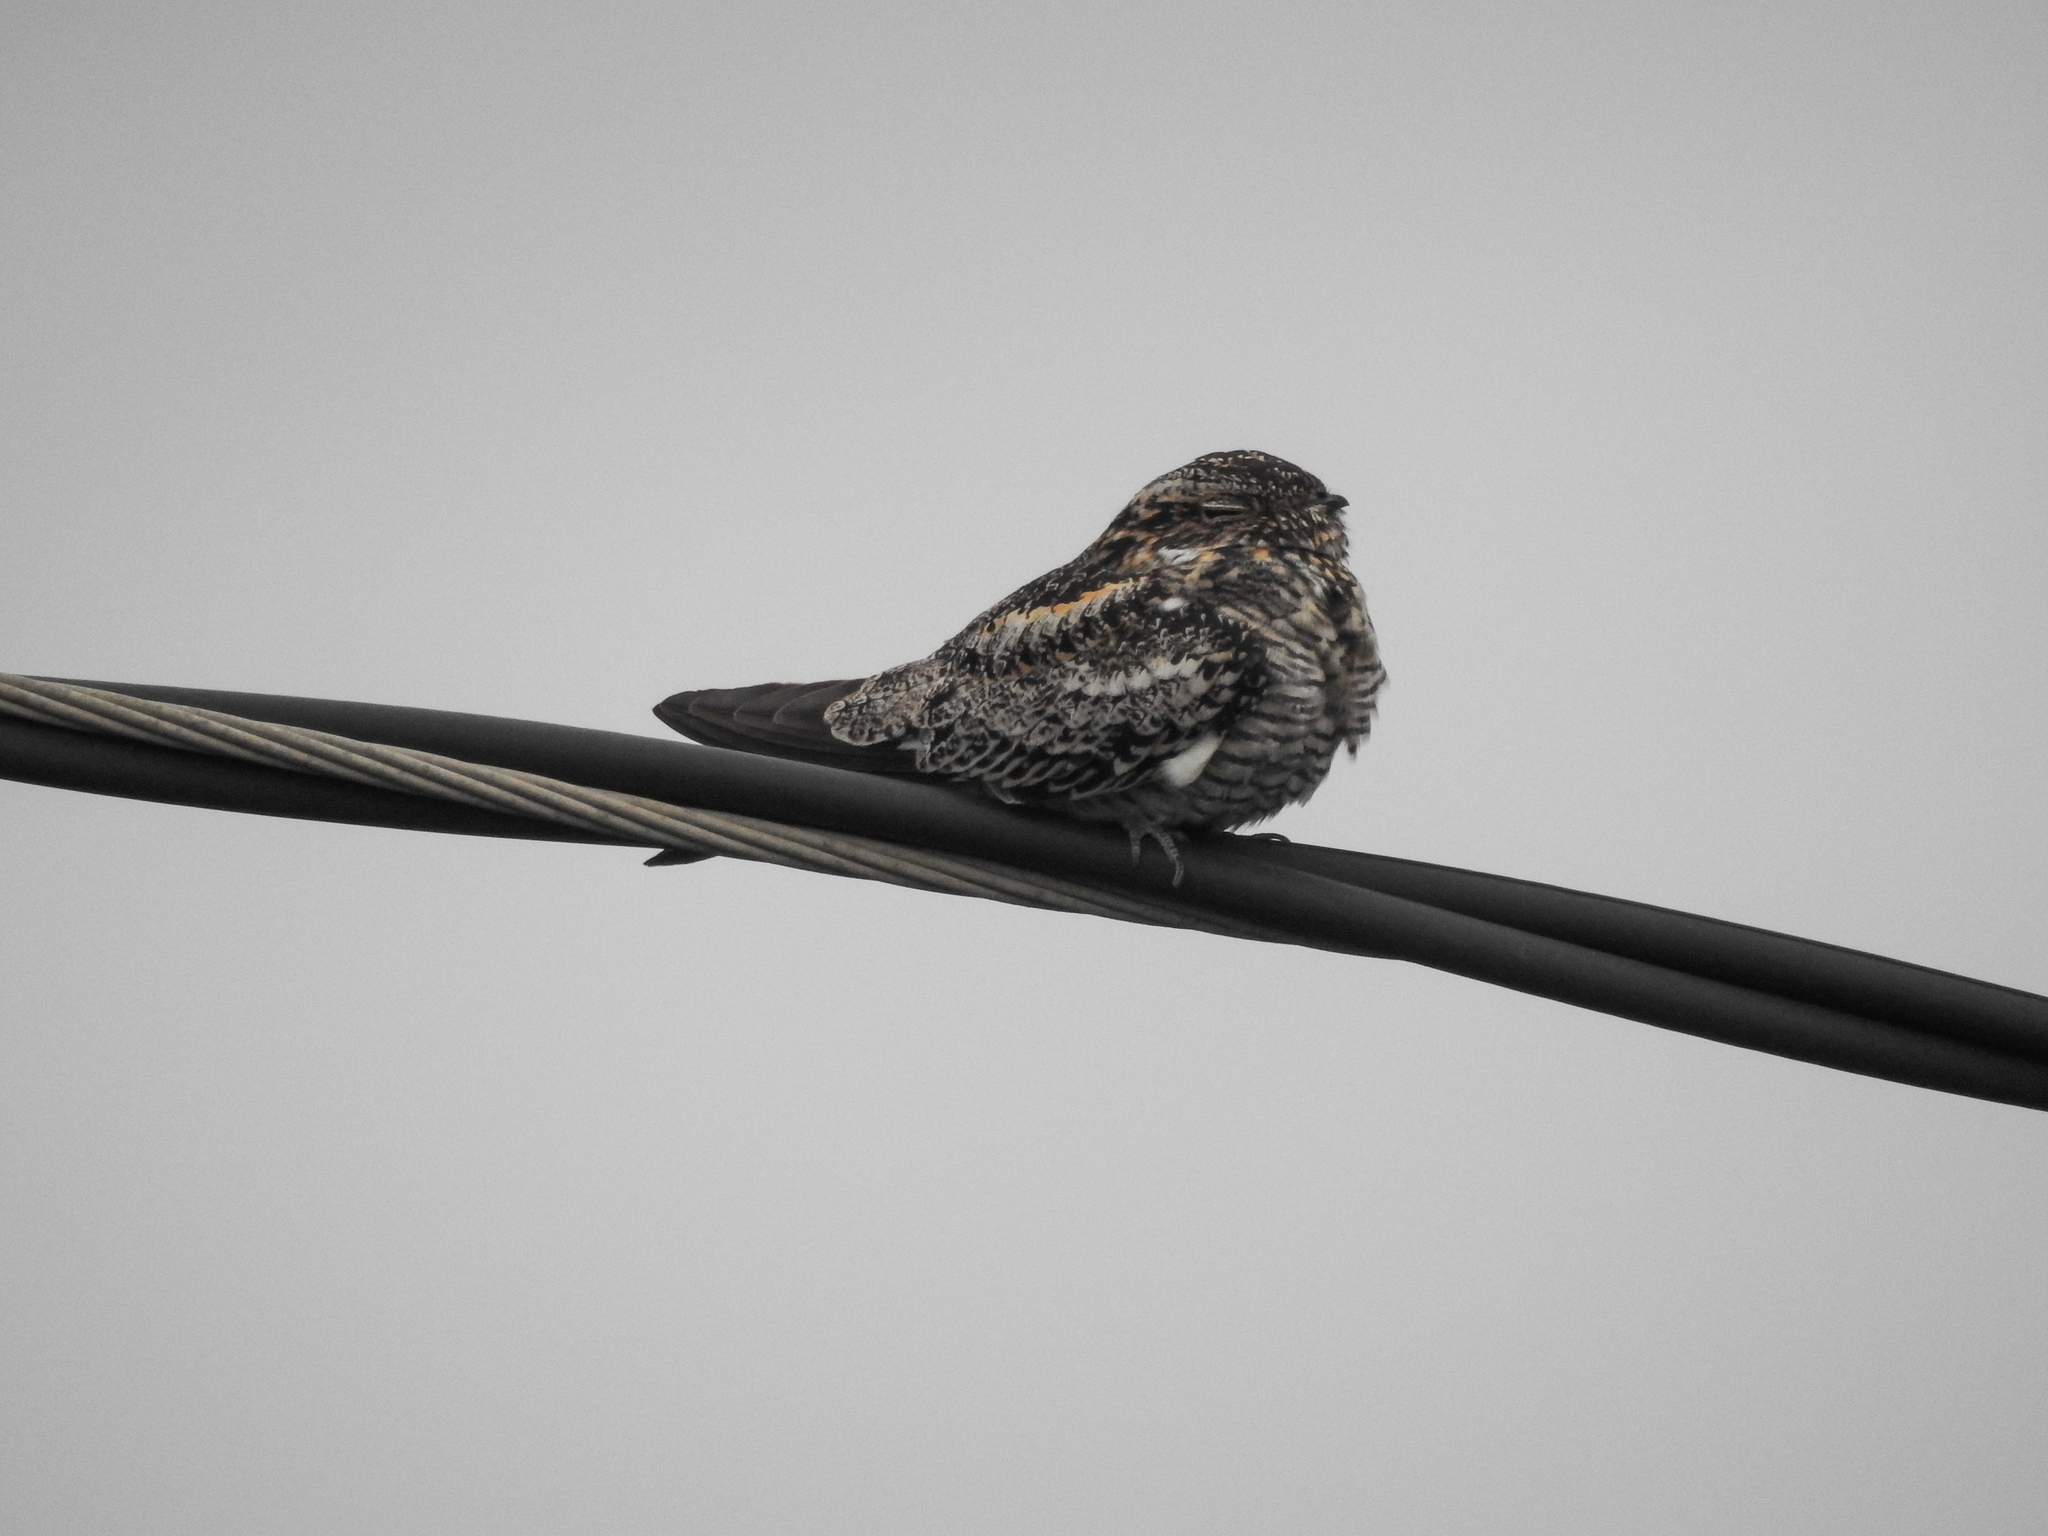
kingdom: Animalia
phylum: Chordata
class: Aves
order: Caprimulgiformes
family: Caprimulgidae
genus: Chordeiles
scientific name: Chordeiles minor
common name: Common nighthawk
